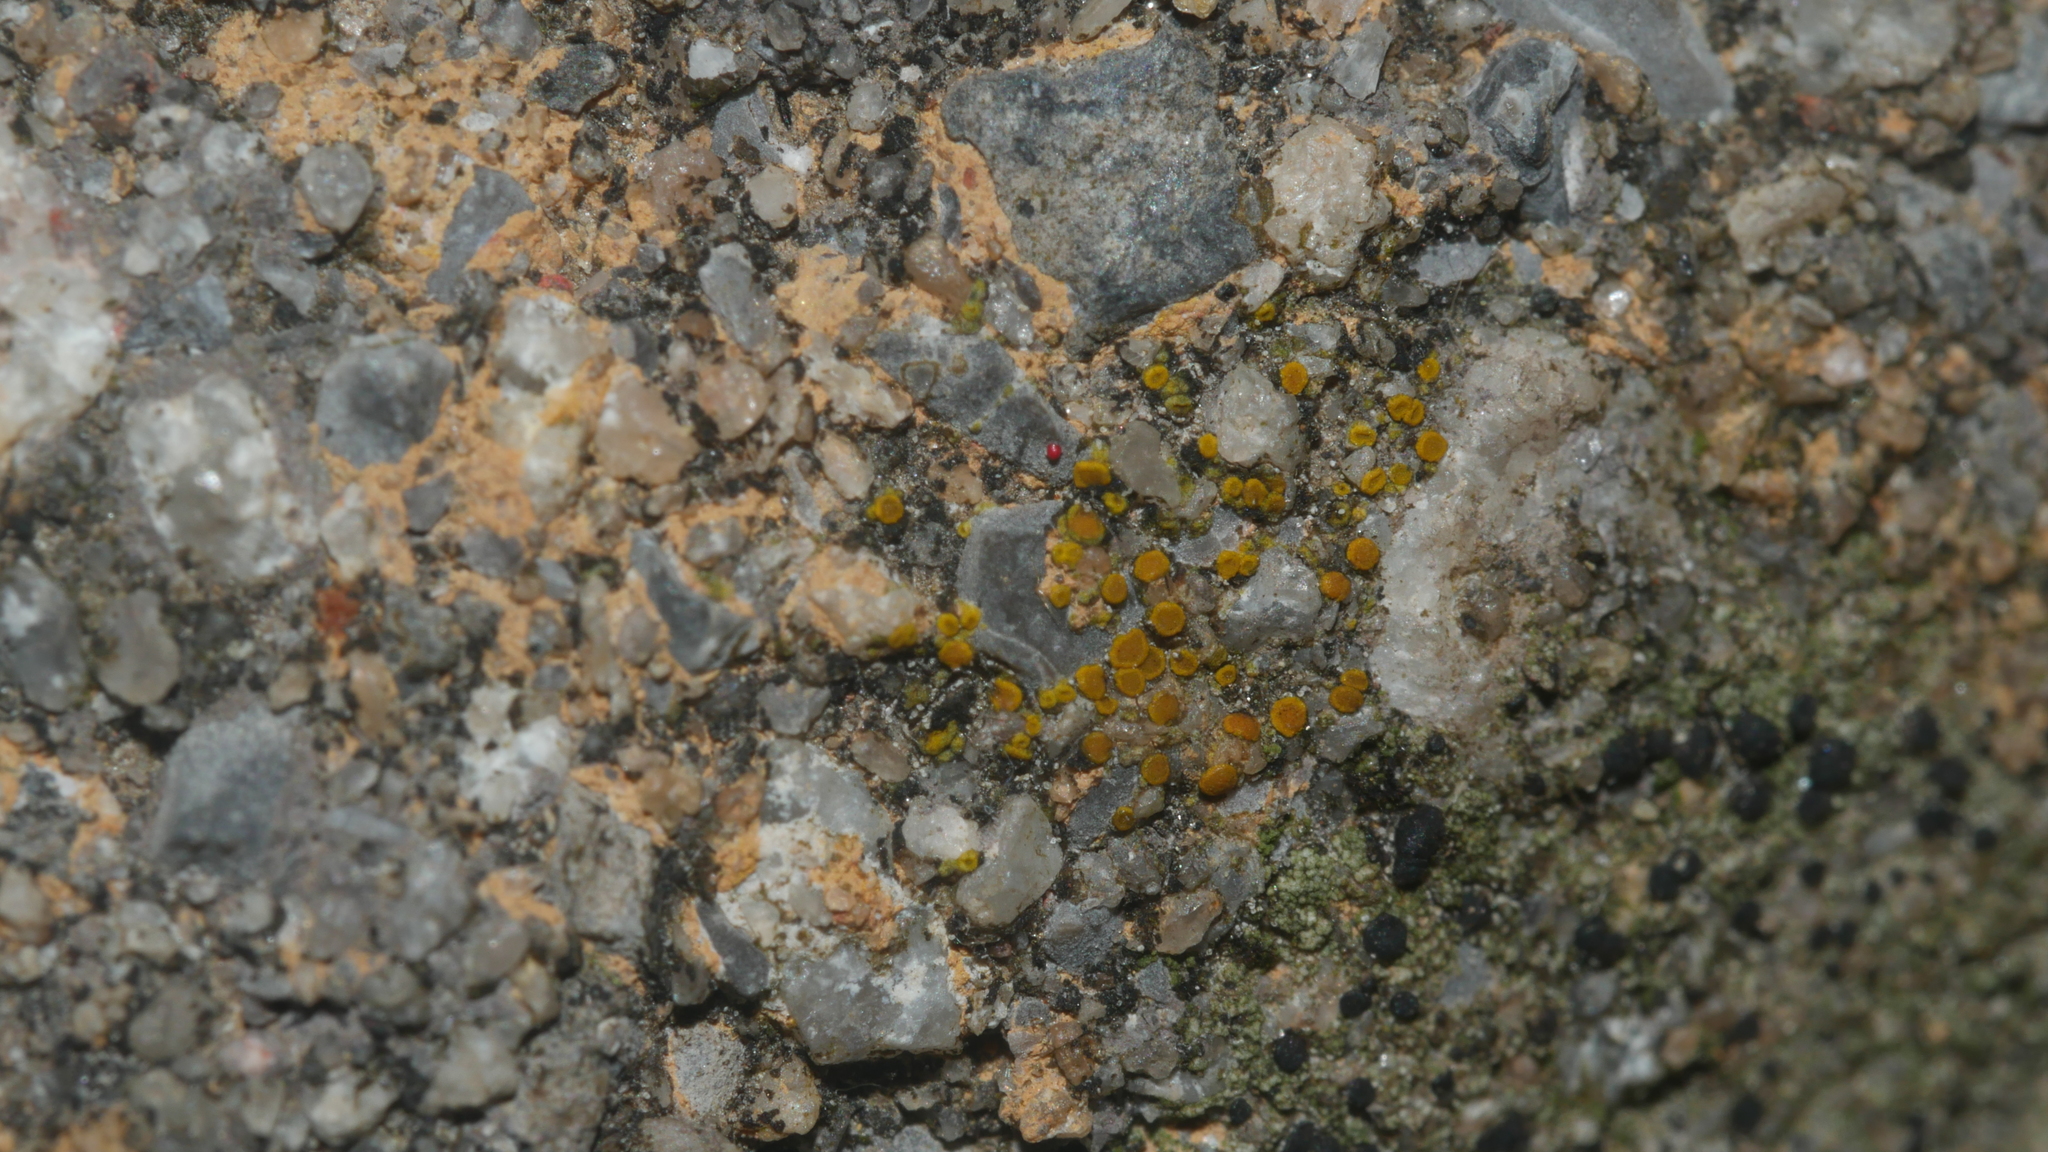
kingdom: Fungi
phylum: Ascomycota
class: Lecanoromycetes
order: Teloschistales
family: Teloschistaceae
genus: Xanthocarpia
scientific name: Xanthocarpia feracissima
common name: Sidewalk firedot
